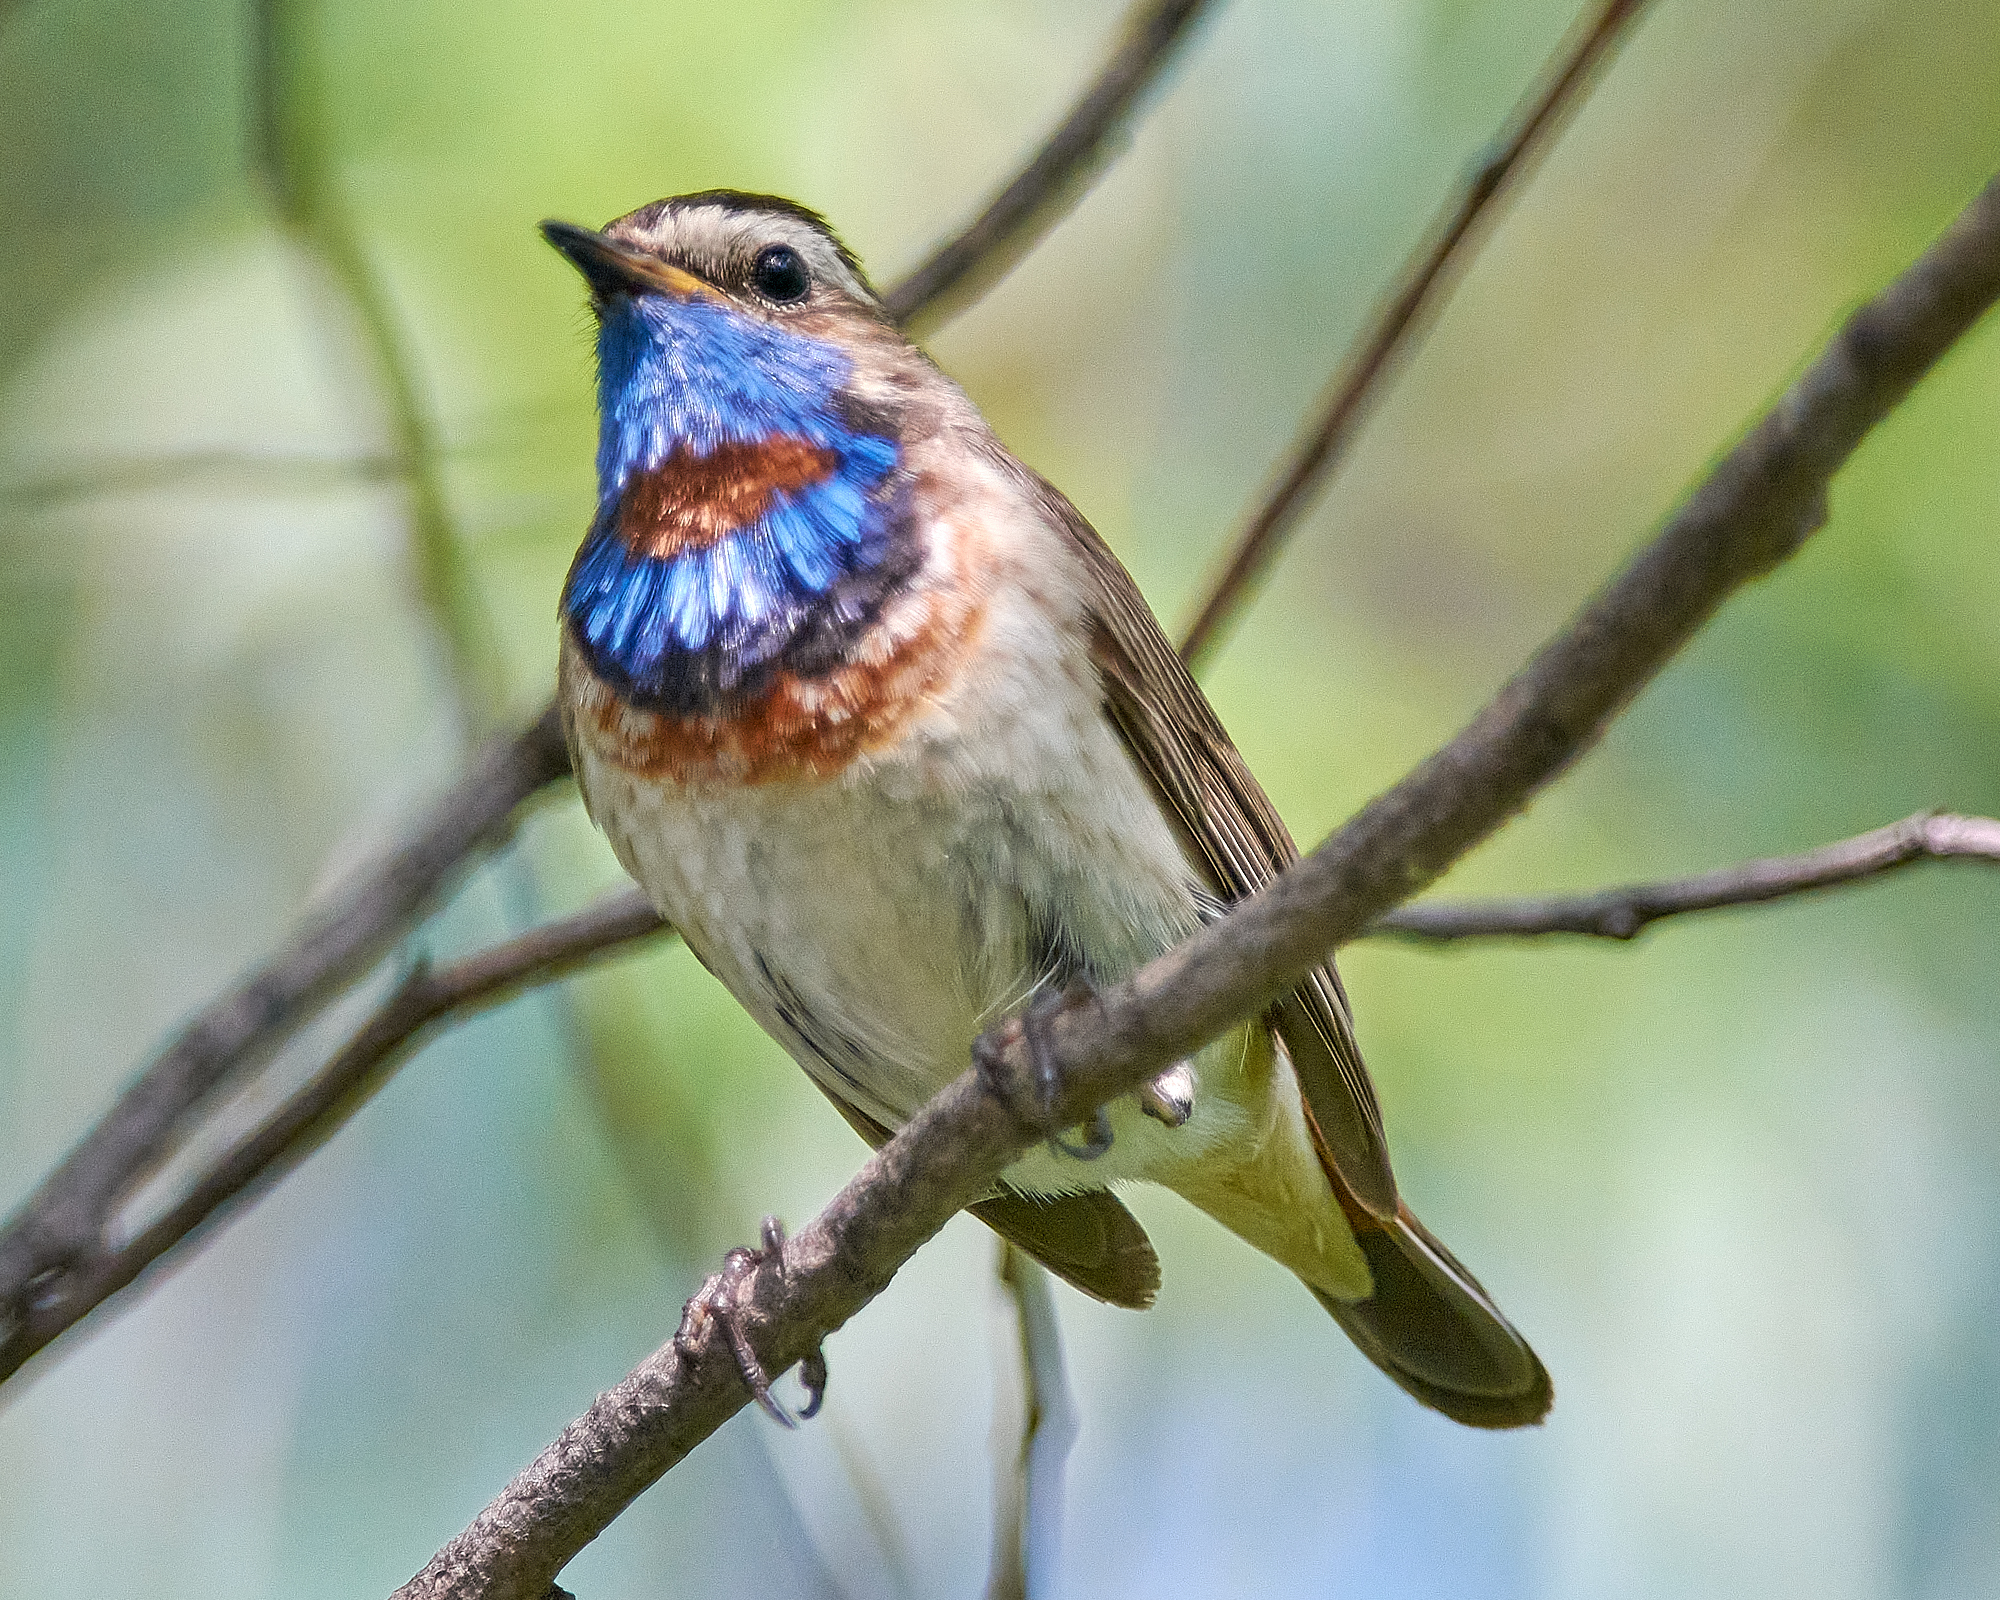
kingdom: Animalia
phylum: Chordata
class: Aves
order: Passeriformes
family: Muscicapidae
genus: Luscinia
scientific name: Luscinia svecica
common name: Bluethroat
